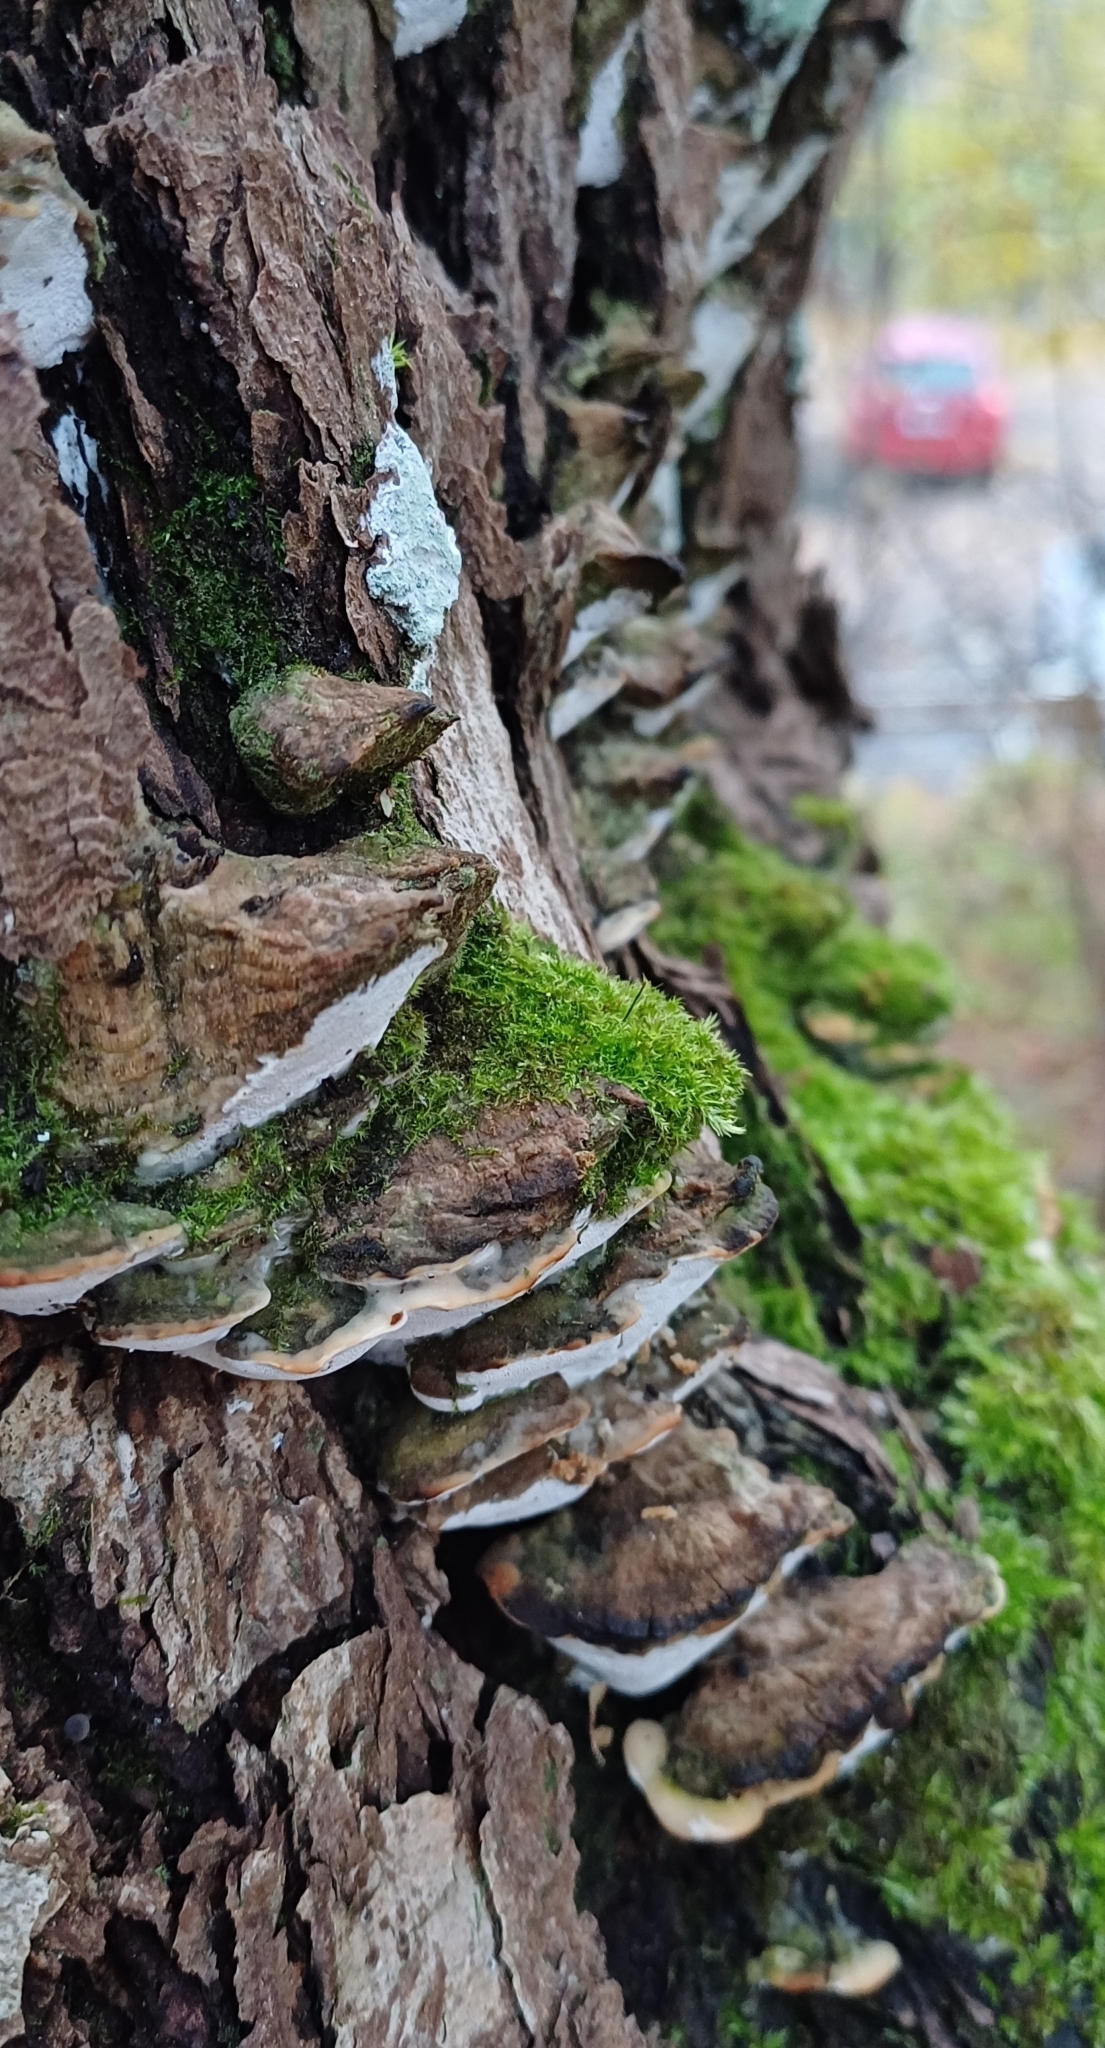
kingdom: Fungi
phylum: Basidiomycota
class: Agaricomycetes
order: Hymenochaetales
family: Oxyporaceae
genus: Oxyporus
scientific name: Oxyporus populinus
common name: Poplar bracket
